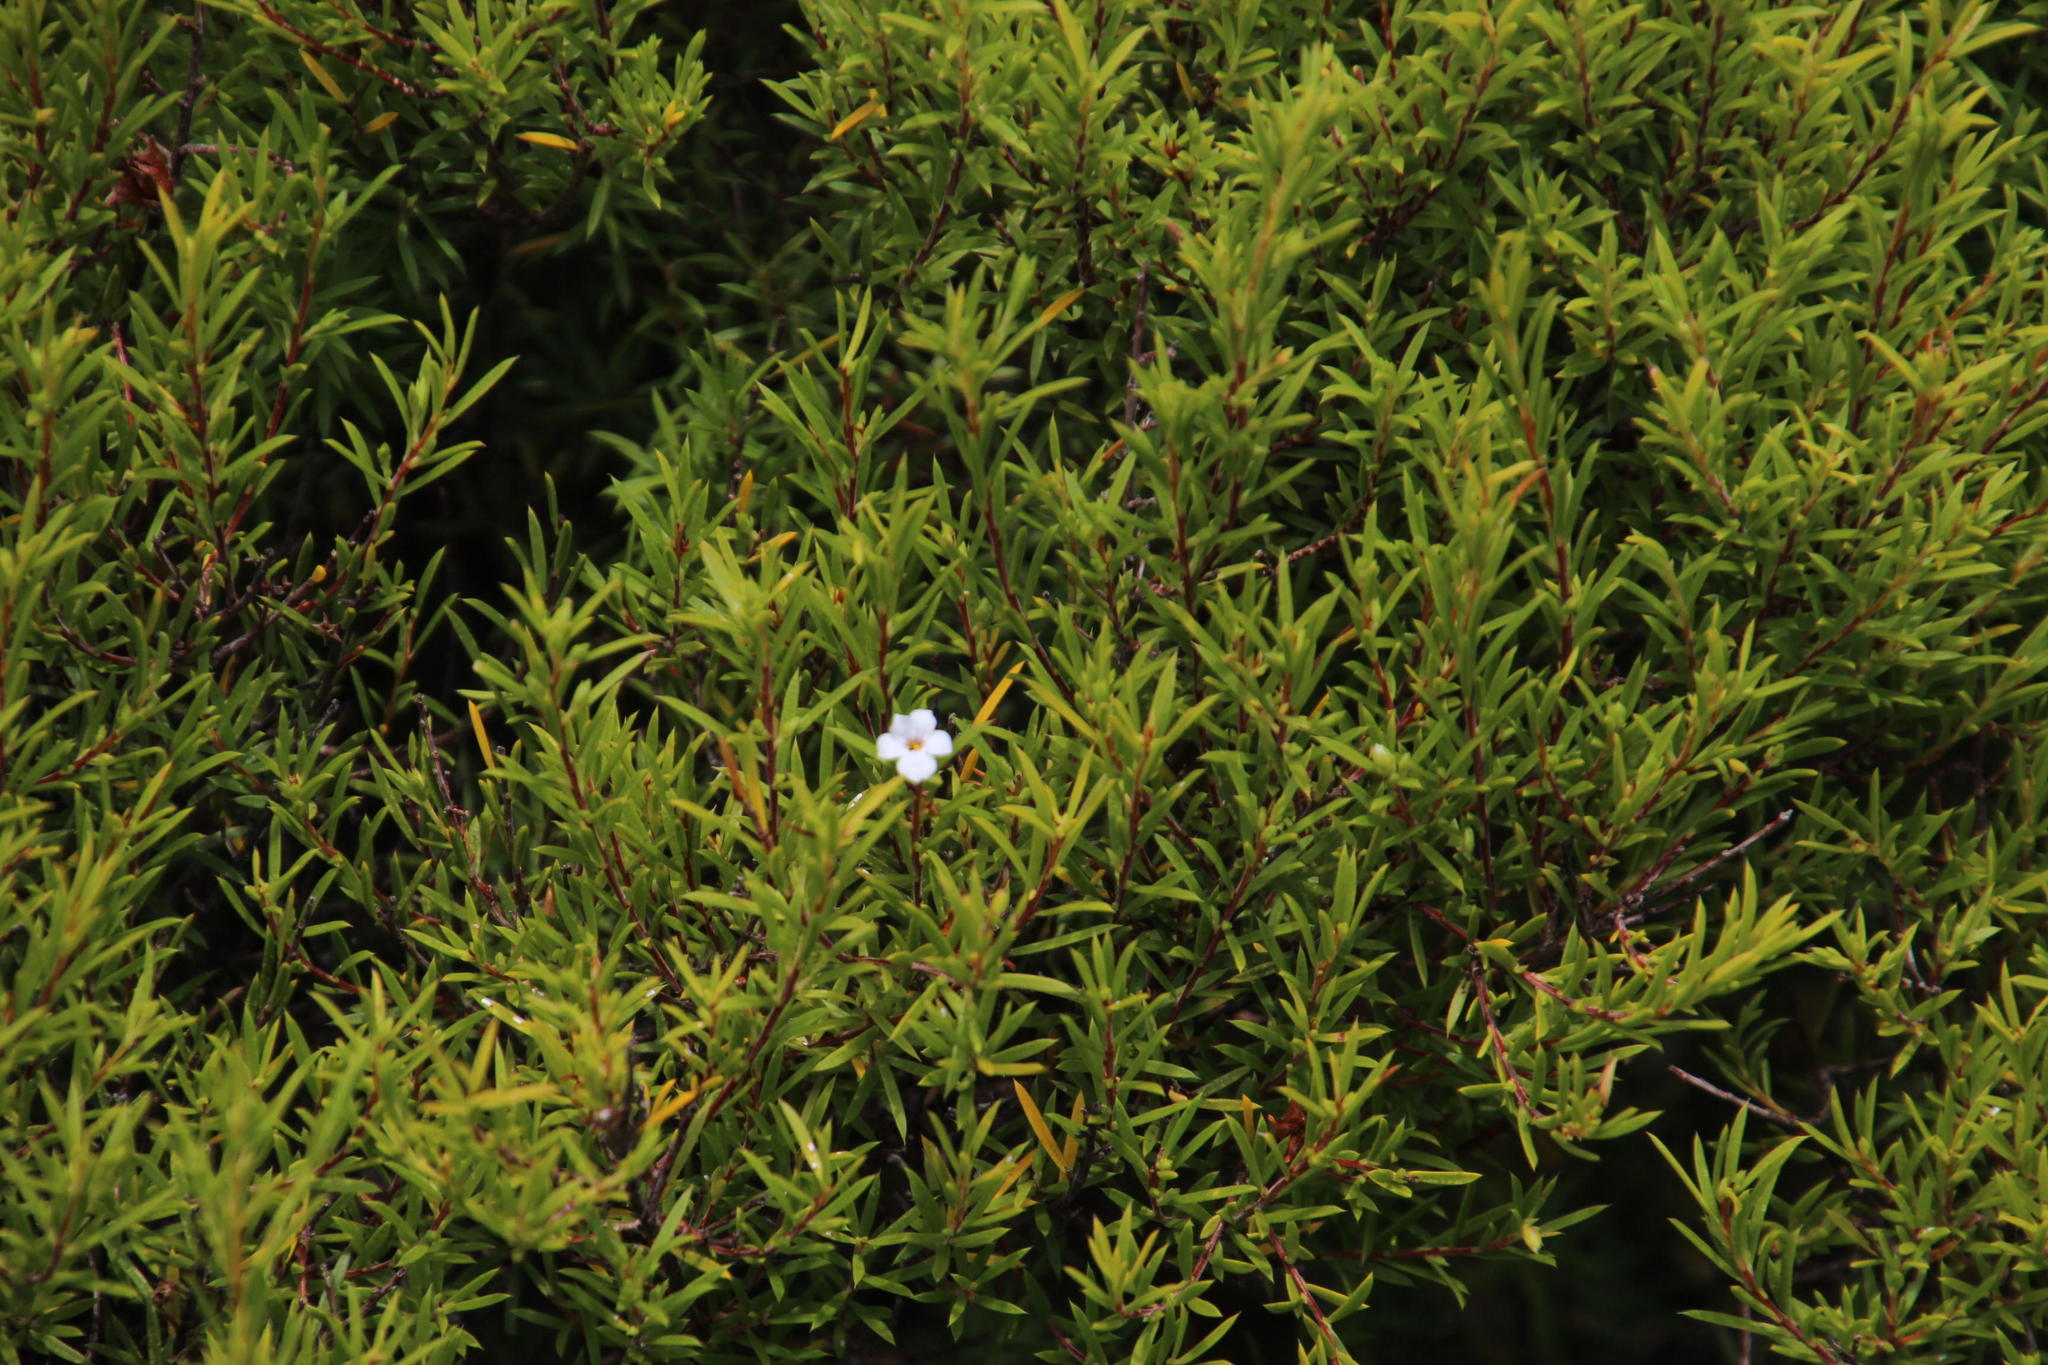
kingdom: Plantae
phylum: Tracheophyta
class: Magnoliopsida
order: Sapindales
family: Rutaceae
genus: Coleonema
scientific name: Coleonema album
